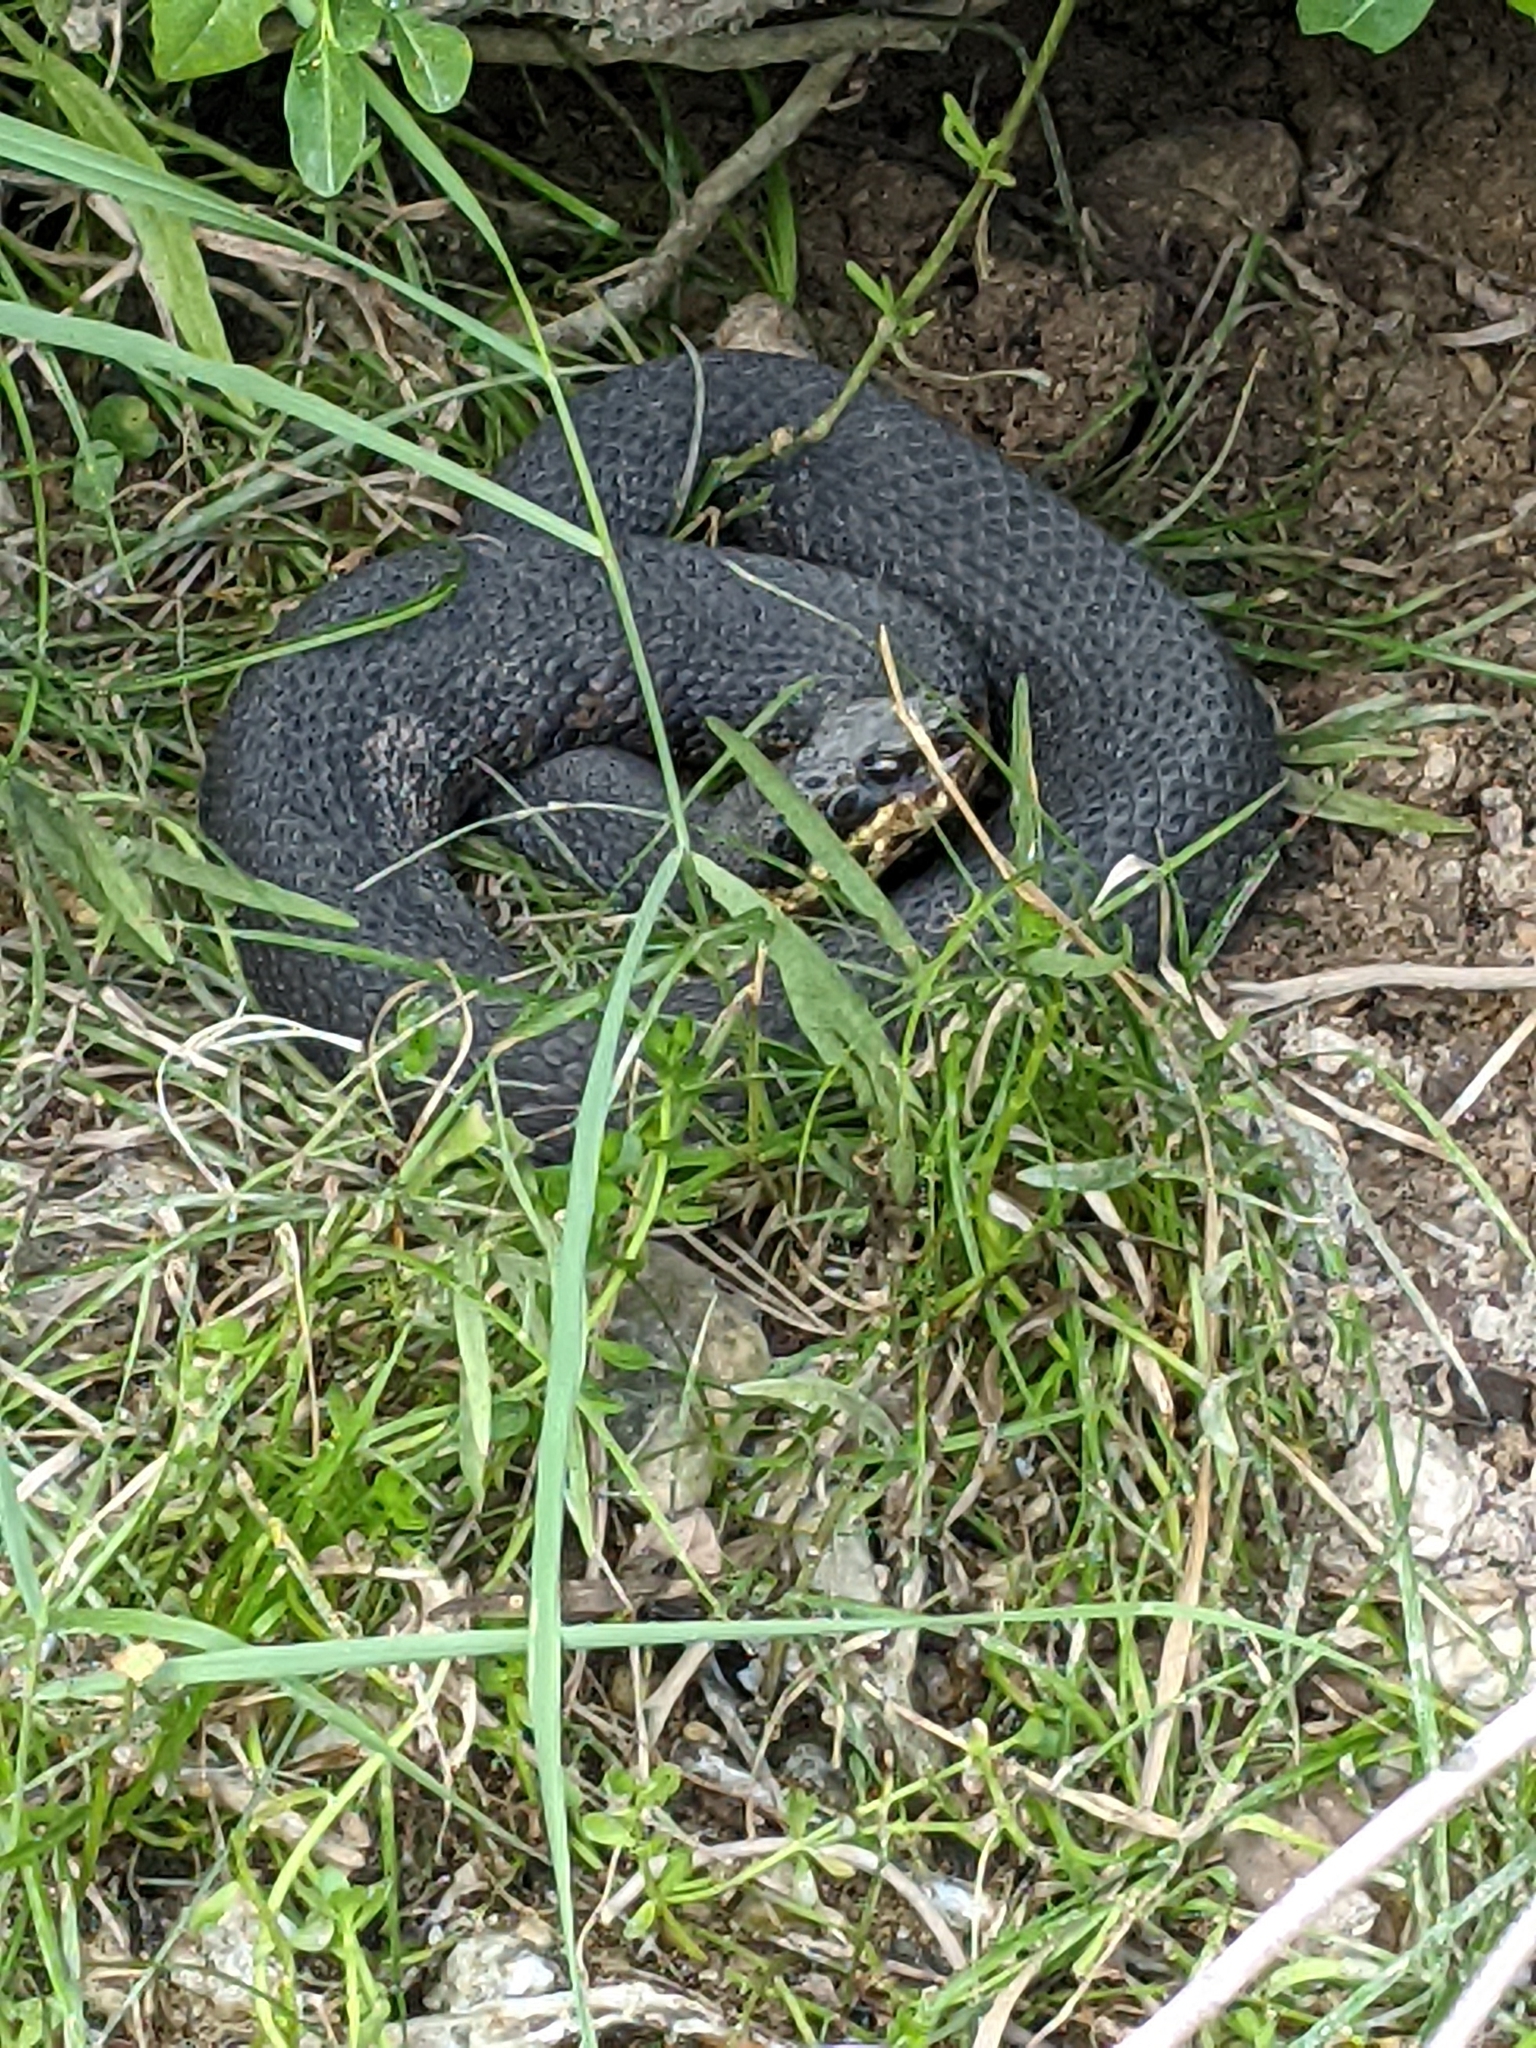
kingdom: Animalia
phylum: Chordata
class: Squamata
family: Viperidae
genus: Agkistrodon
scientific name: Agkistrodon piscivorus
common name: Cottonmouth
